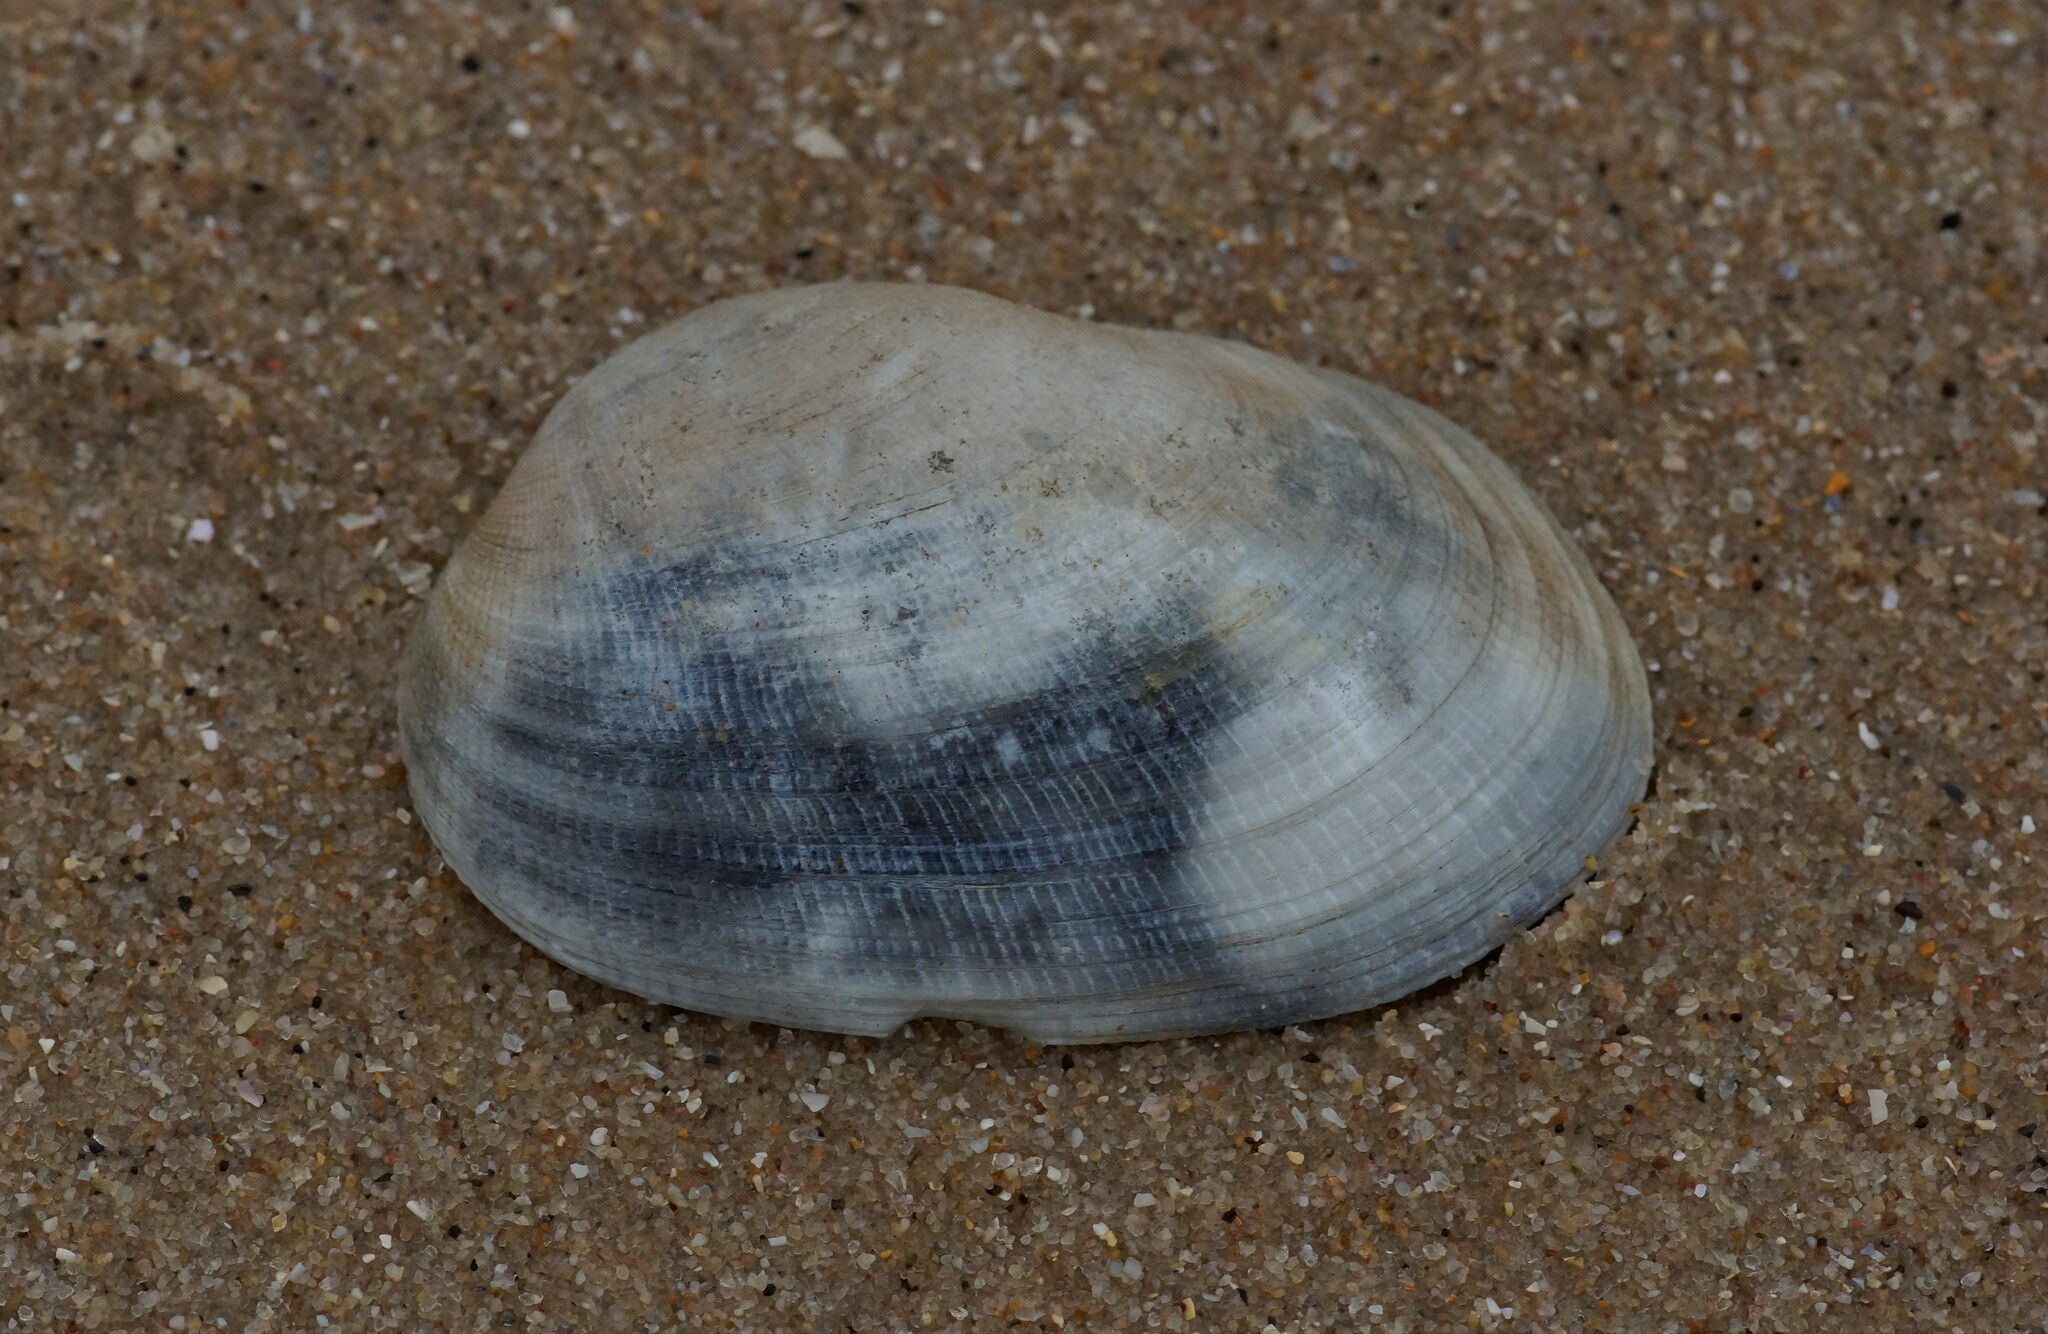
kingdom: Animalia
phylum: Mollusca
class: Bivalvia
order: Venerida
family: Veneridae
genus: Venerupis
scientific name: Venerupis galactites
